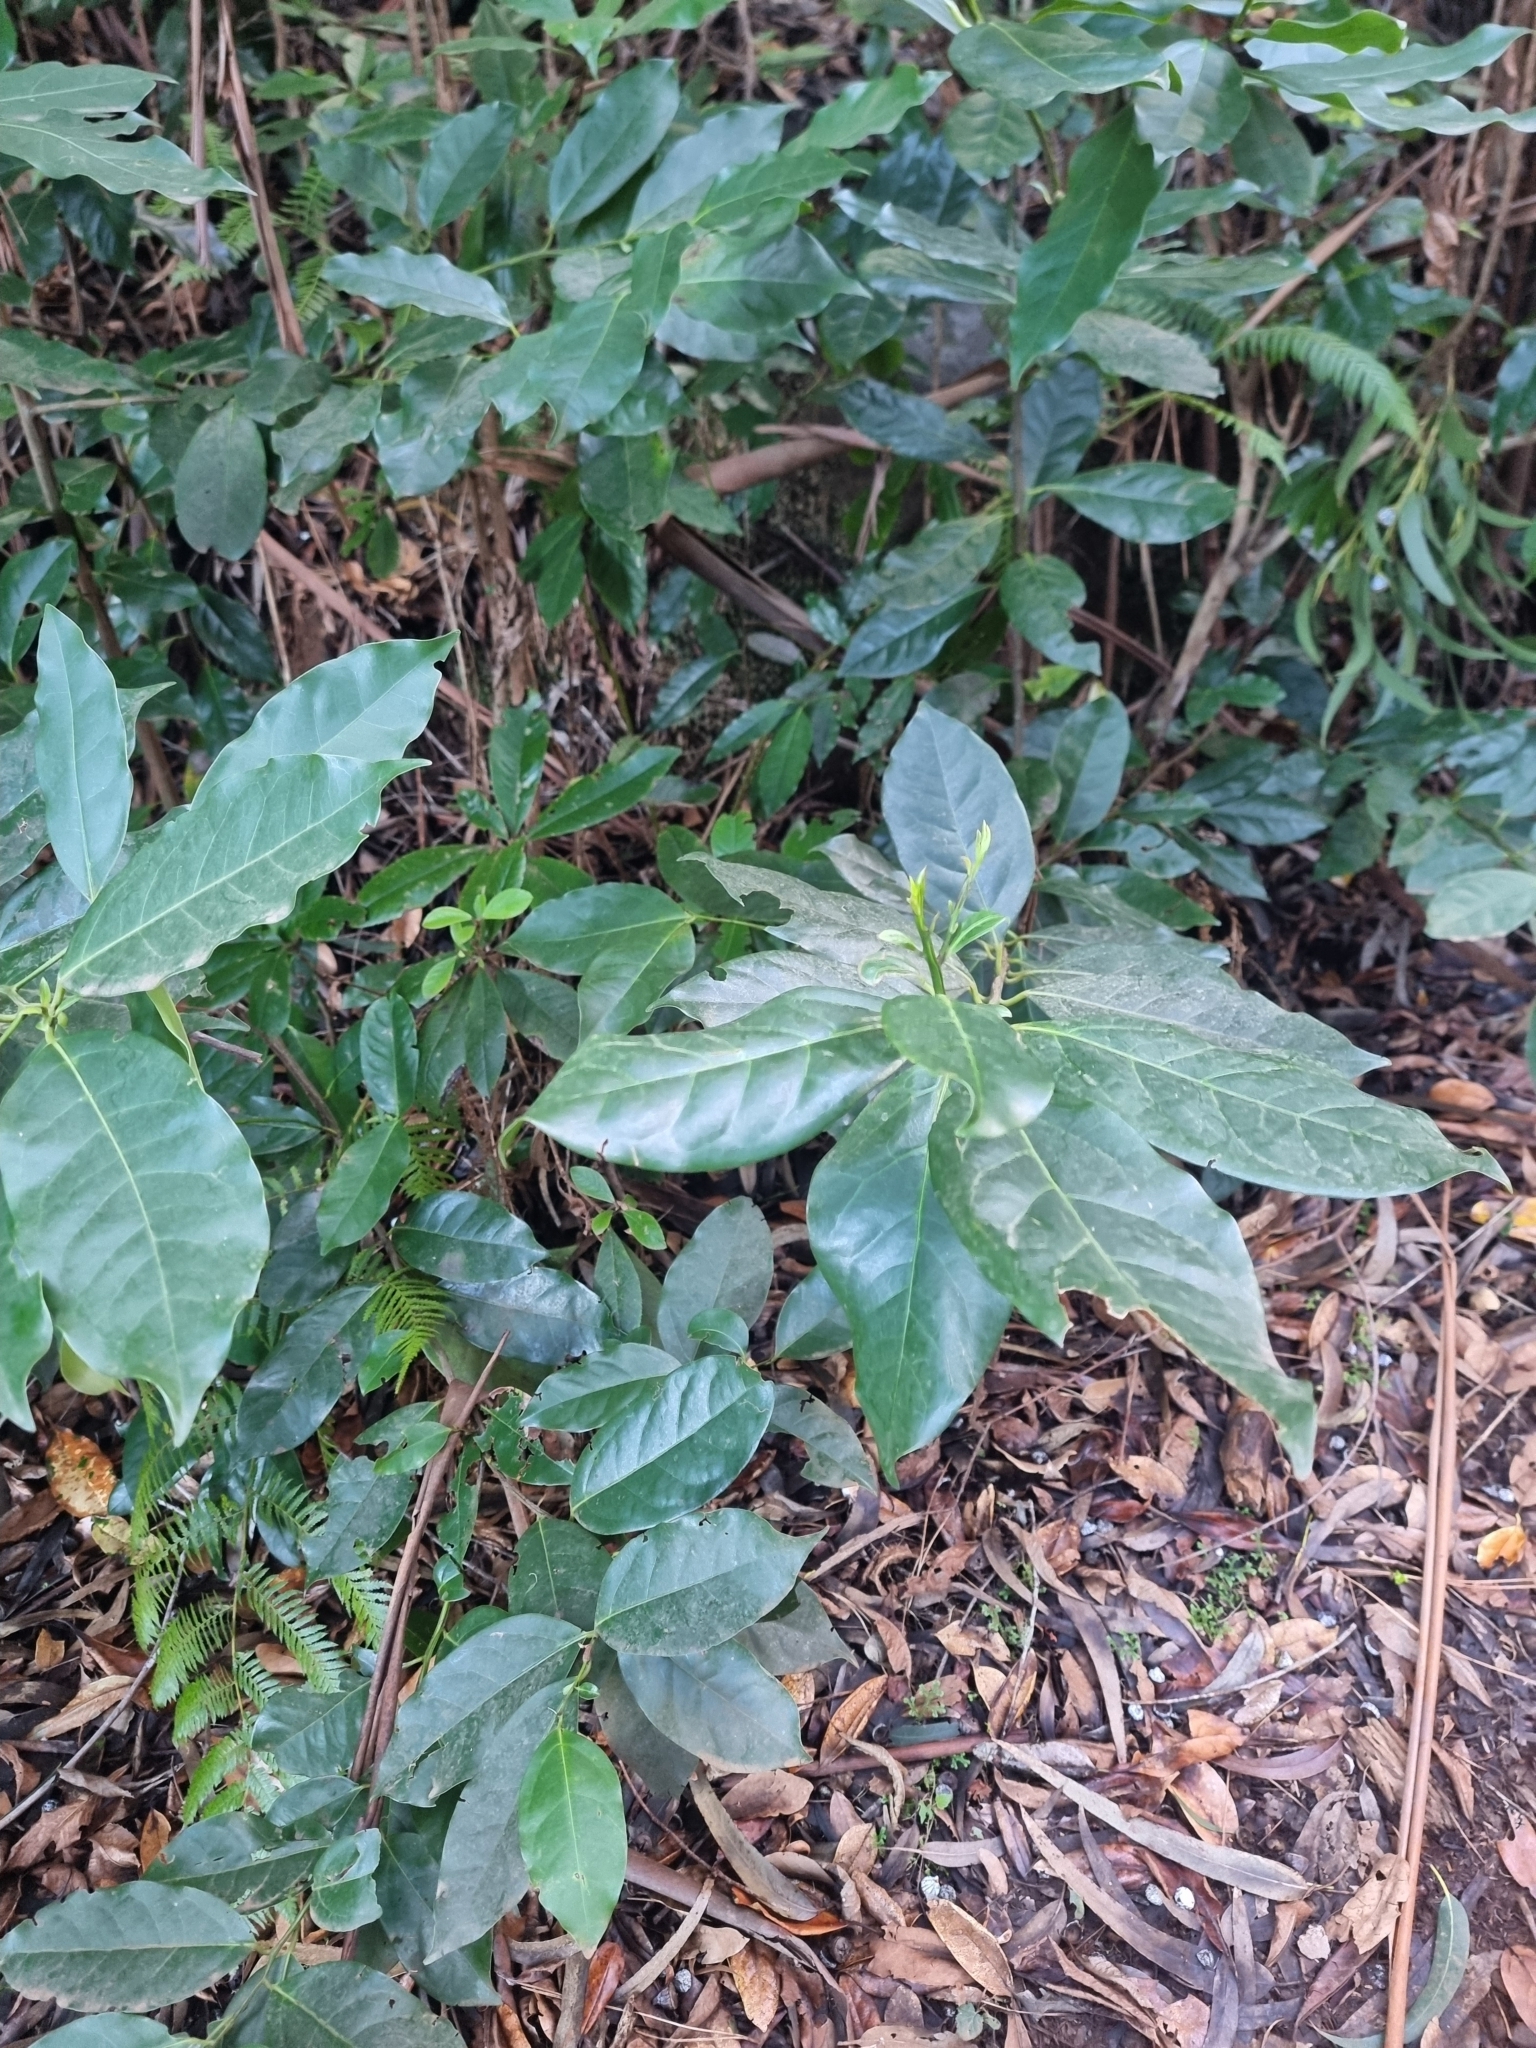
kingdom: Plantae
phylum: Tracheophyta
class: Magnoliopsida
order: Laurales
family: Lauraceae
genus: Mespilodaphne
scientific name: Mespilodaphne foetens
